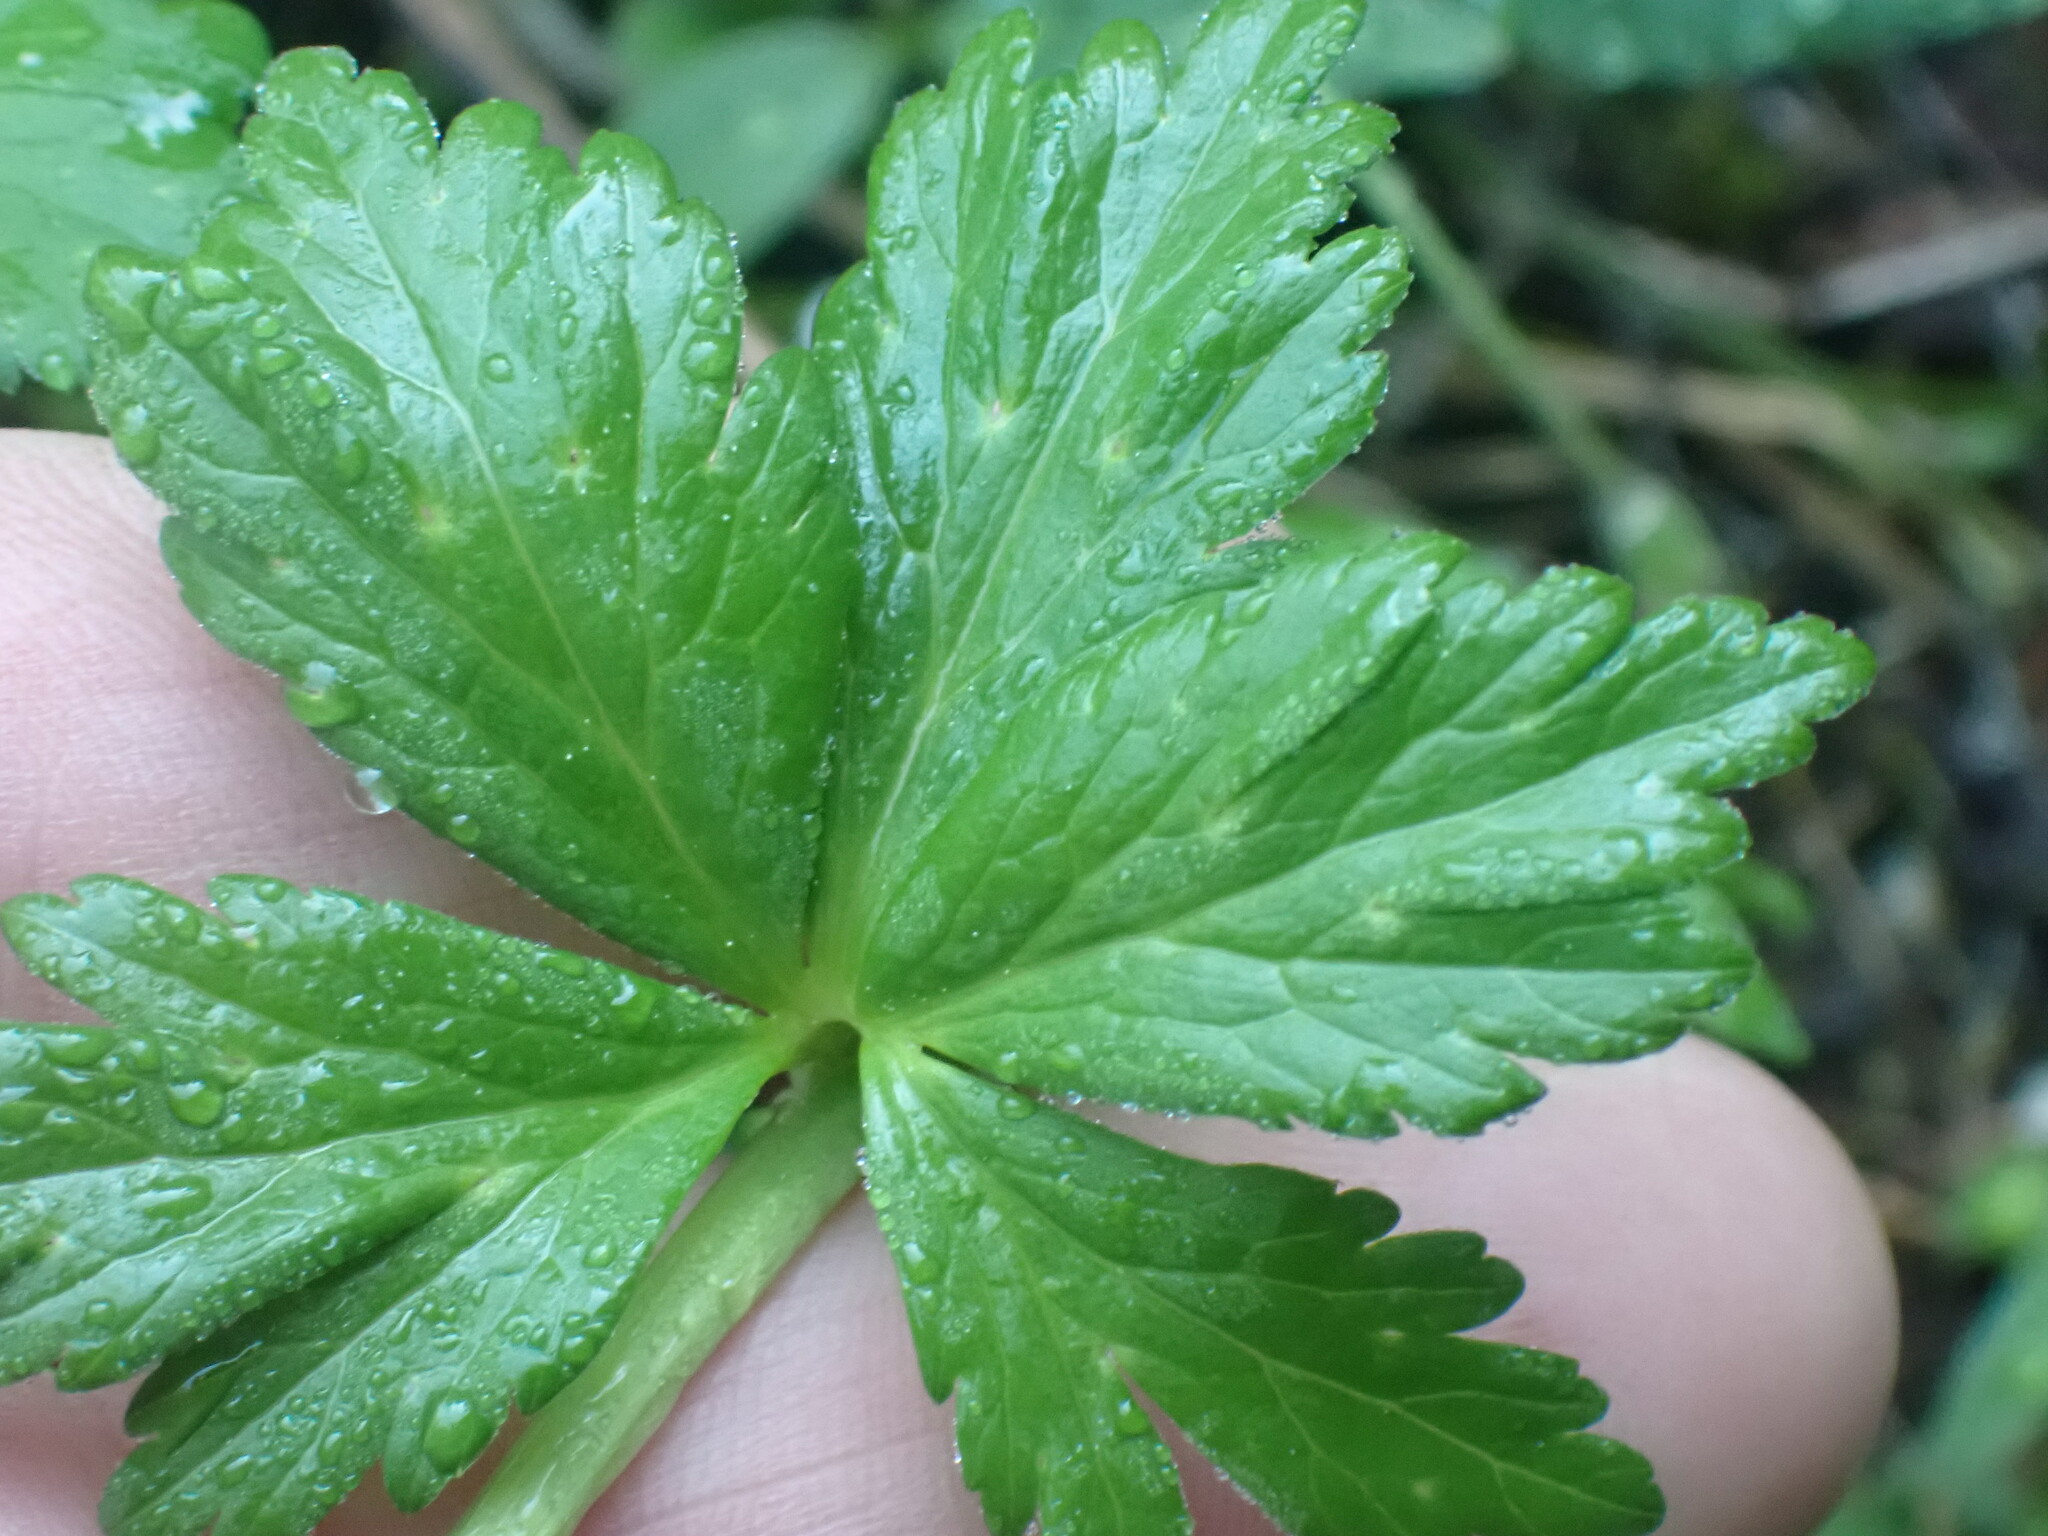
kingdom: Plantae
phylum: Tracheophyta
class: Magnoliopsida
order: Ranunculales
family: Ranunculaceae
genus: Trollius
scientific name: Trollius laxus
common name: American globeflower
